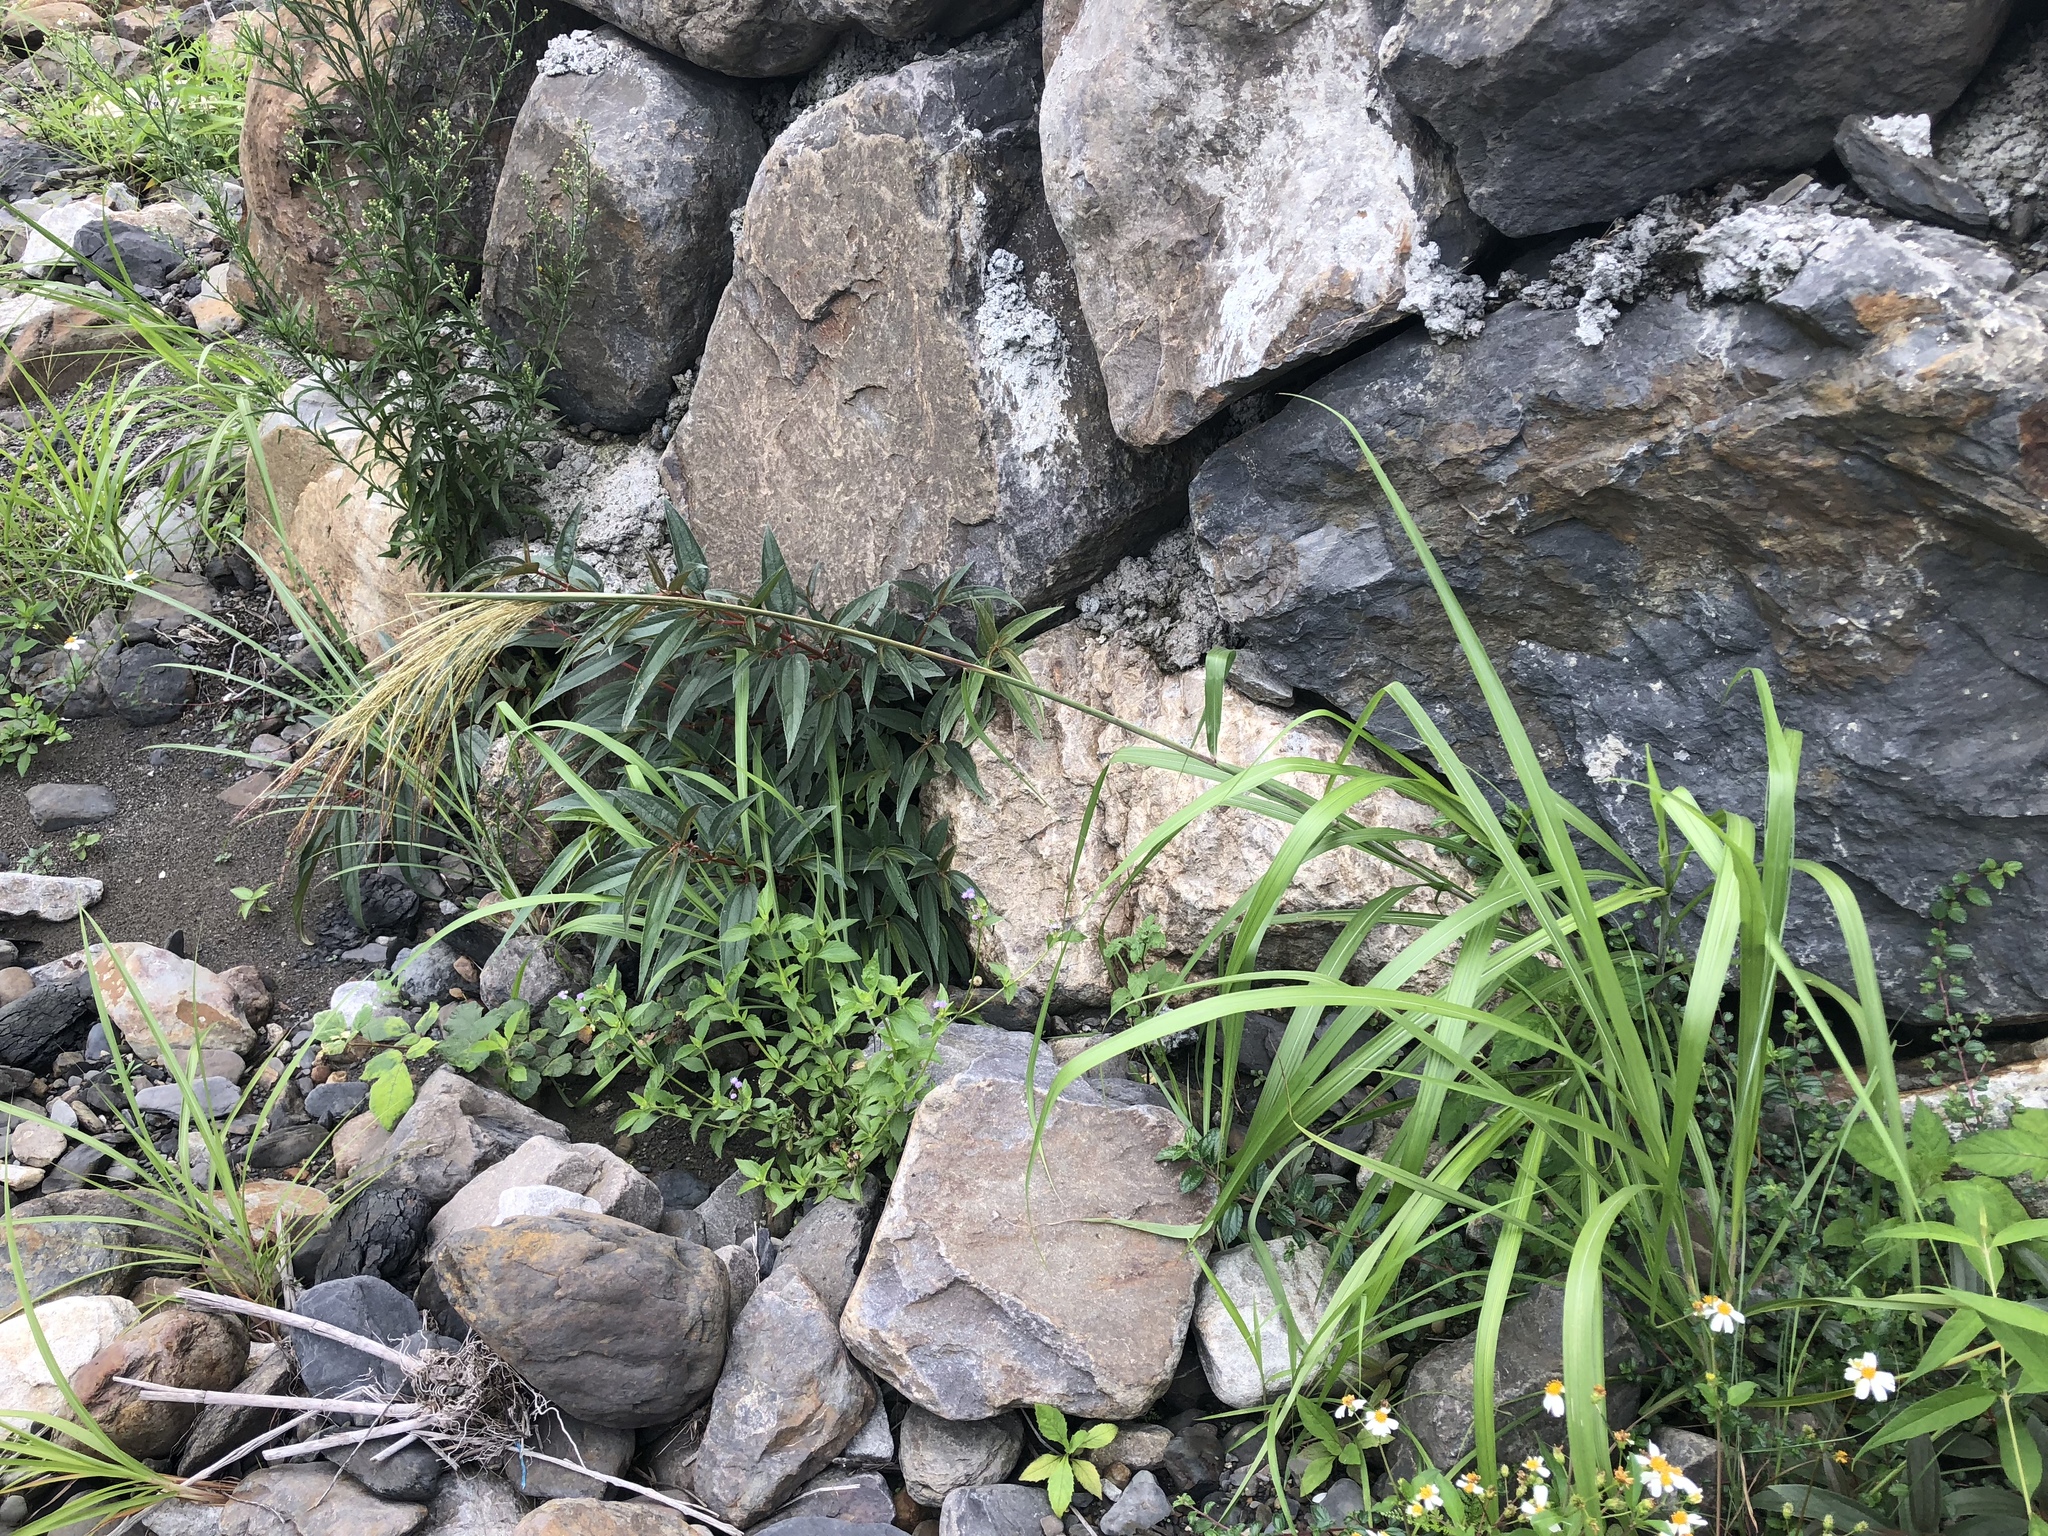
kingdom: Plantae
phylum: Tracheophyta
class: Liliopsida
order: Poales
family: Poaceae
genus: Miscanthus
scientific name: Miscanthus sinensis
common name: Chinese silvergrass
